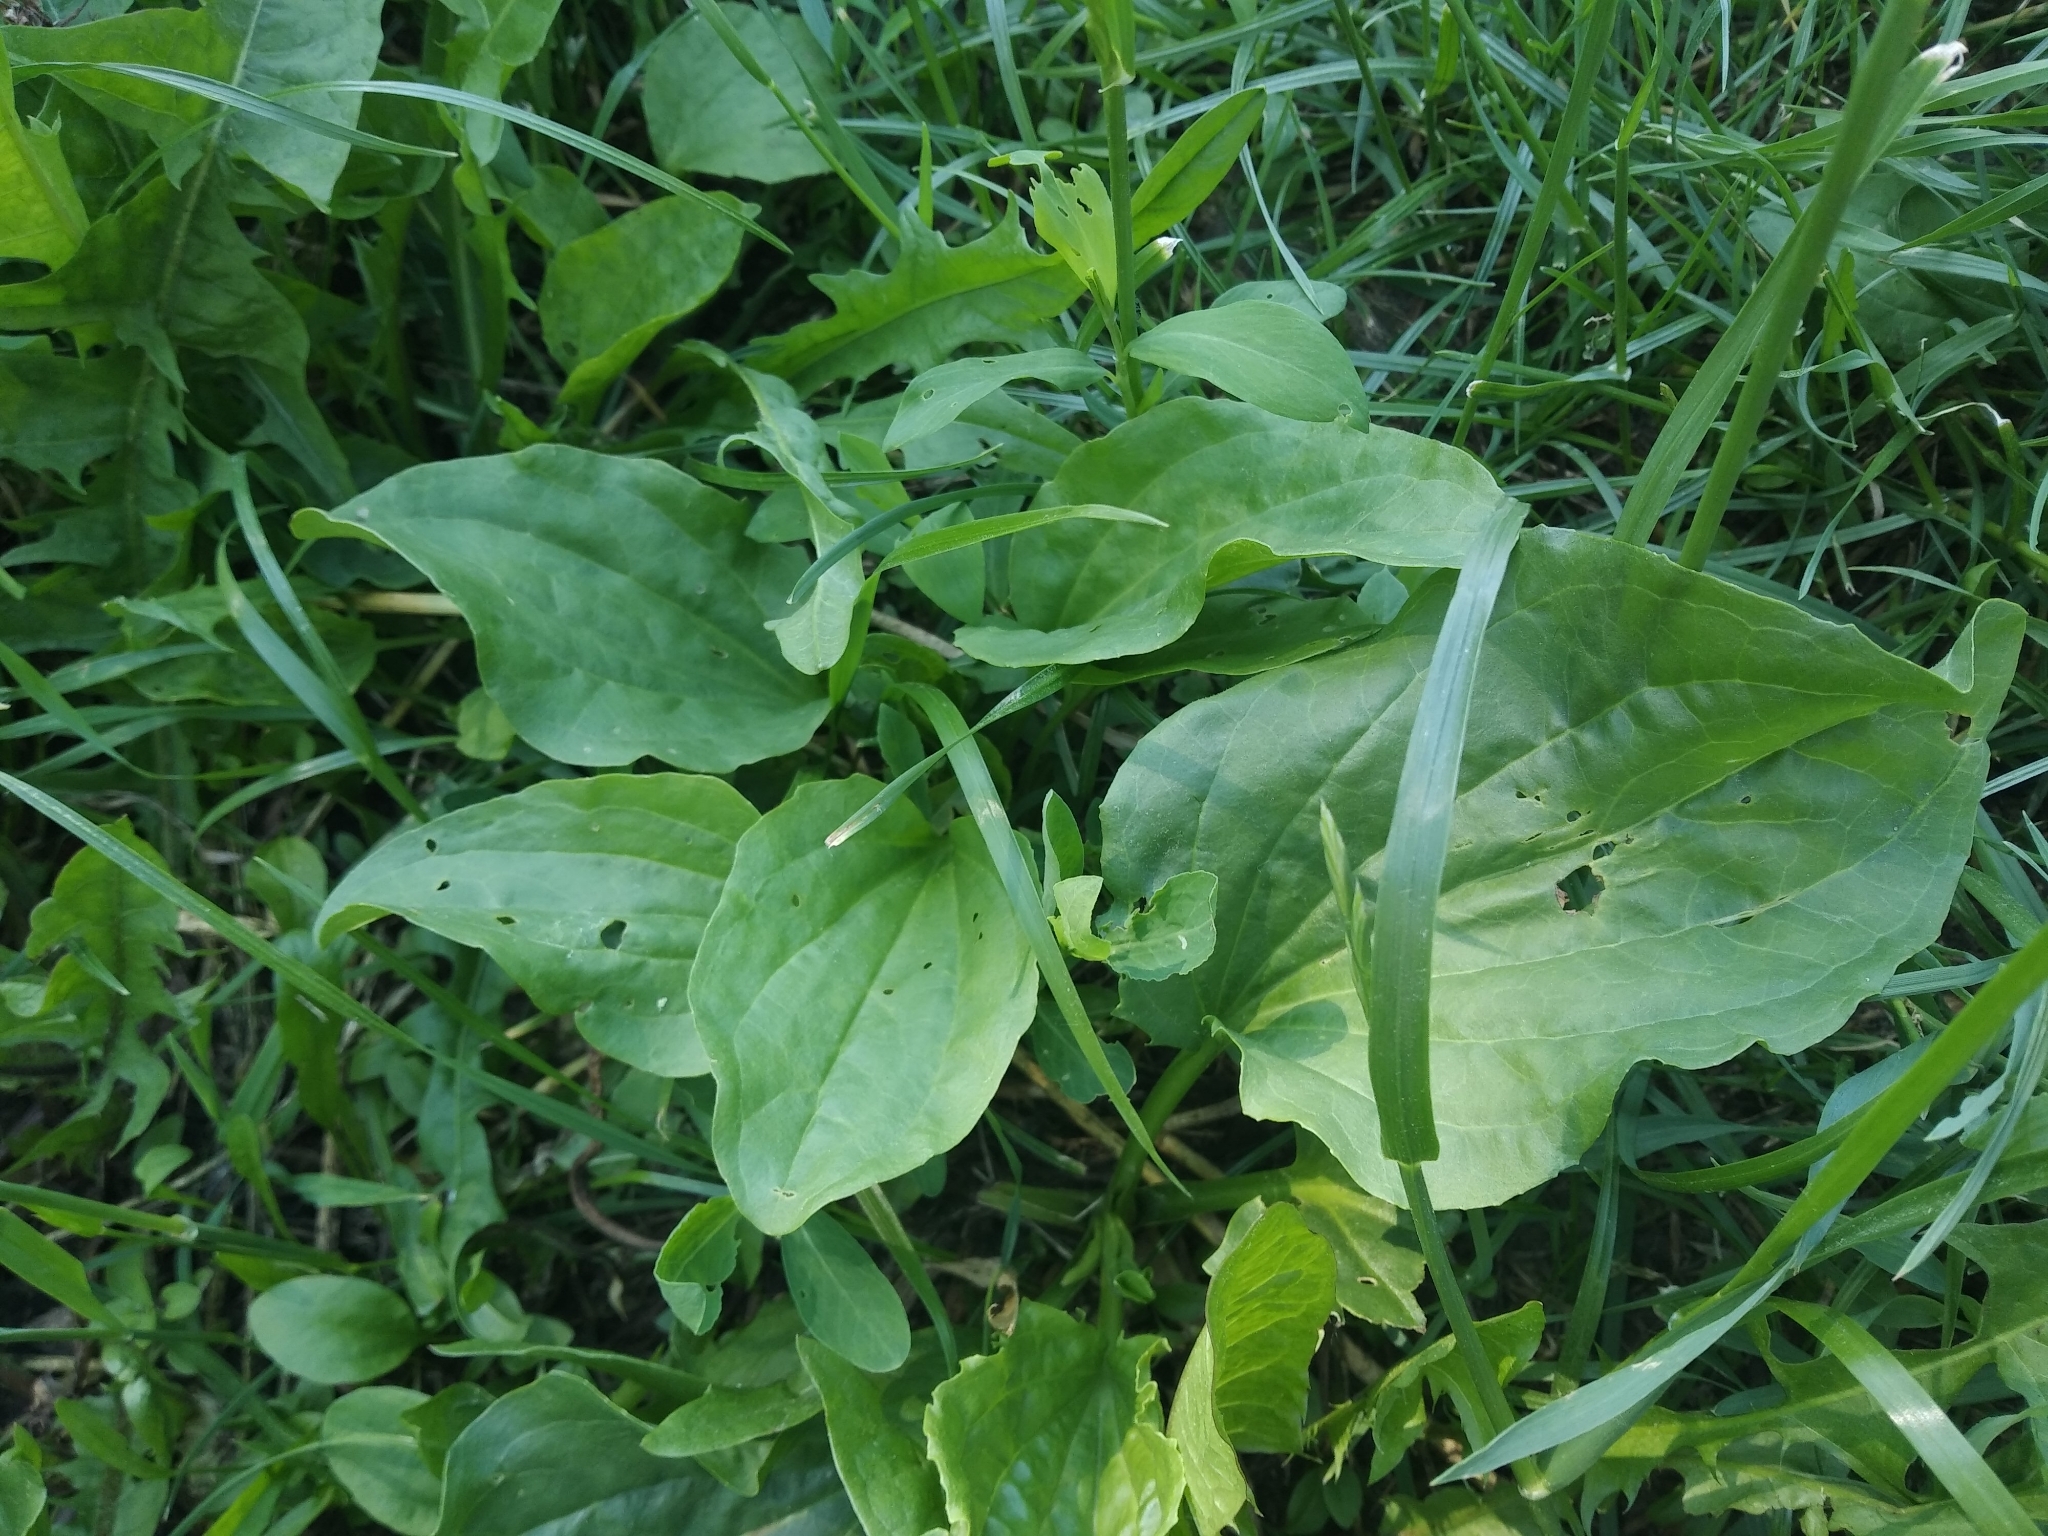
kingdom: Plantae
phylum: Tracheophyta
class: Magnoliopsida
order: Lamiales
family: Plantaginaceae
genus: Plantago
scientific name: Plantago major
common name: Common plantain
